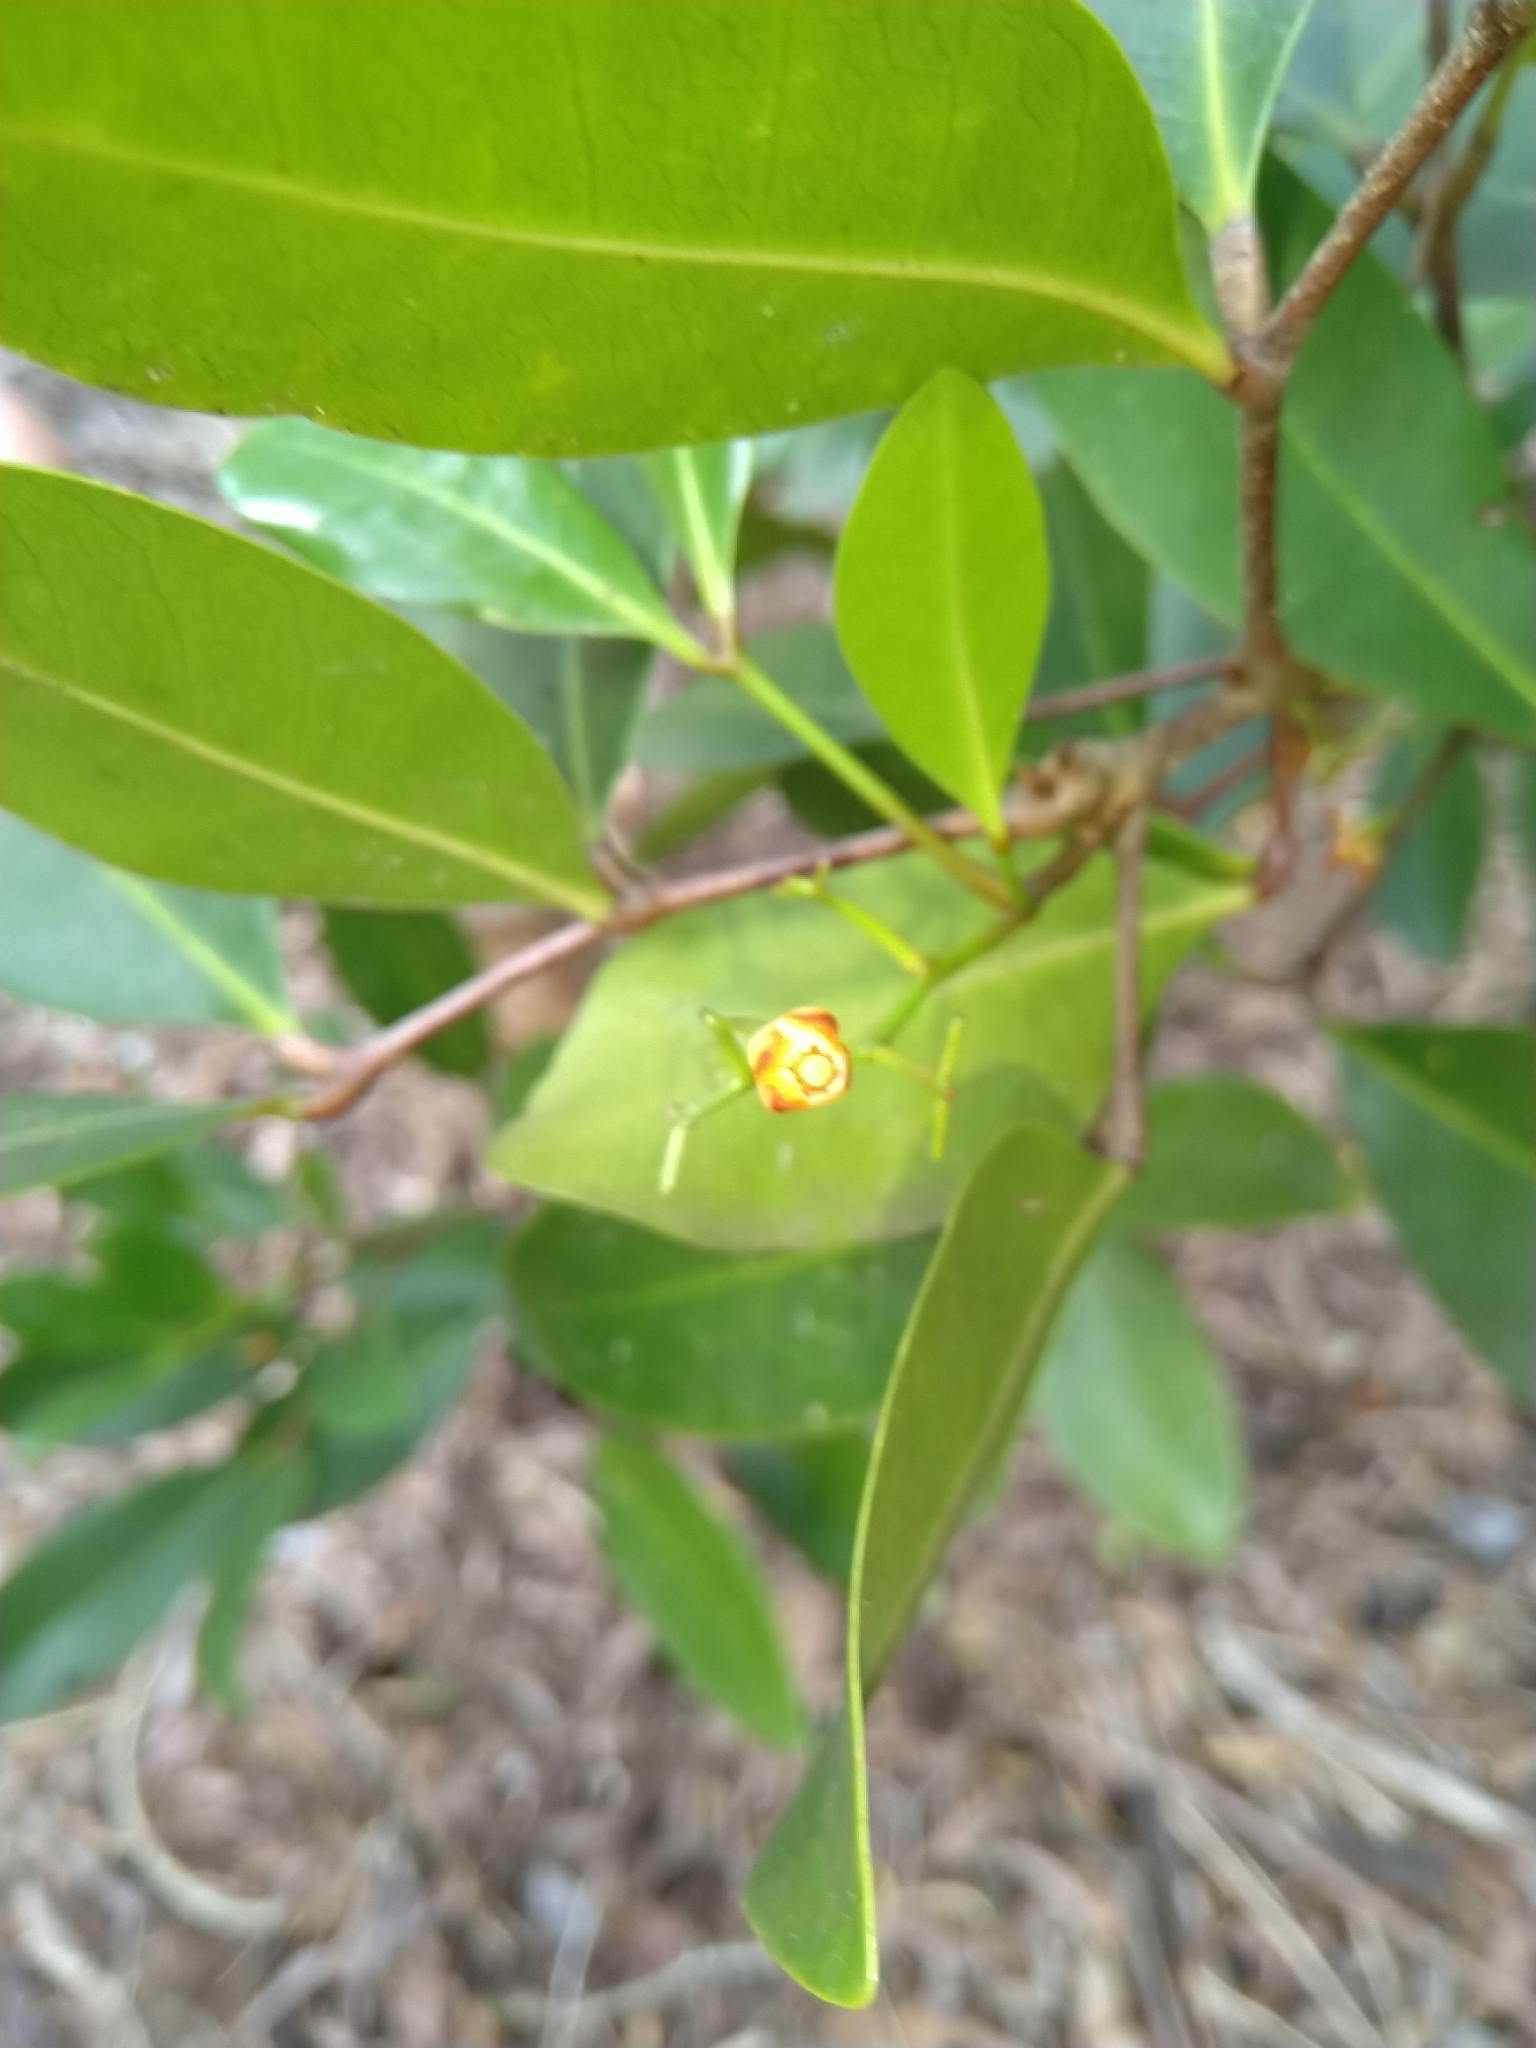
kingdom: Plantae
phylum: Tracheophyta
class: Magnoliopsida
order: Sapindales
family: Meliaceae
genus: Xylocarpus
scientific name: Xylocarpus granatum
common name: Apple mangrove
